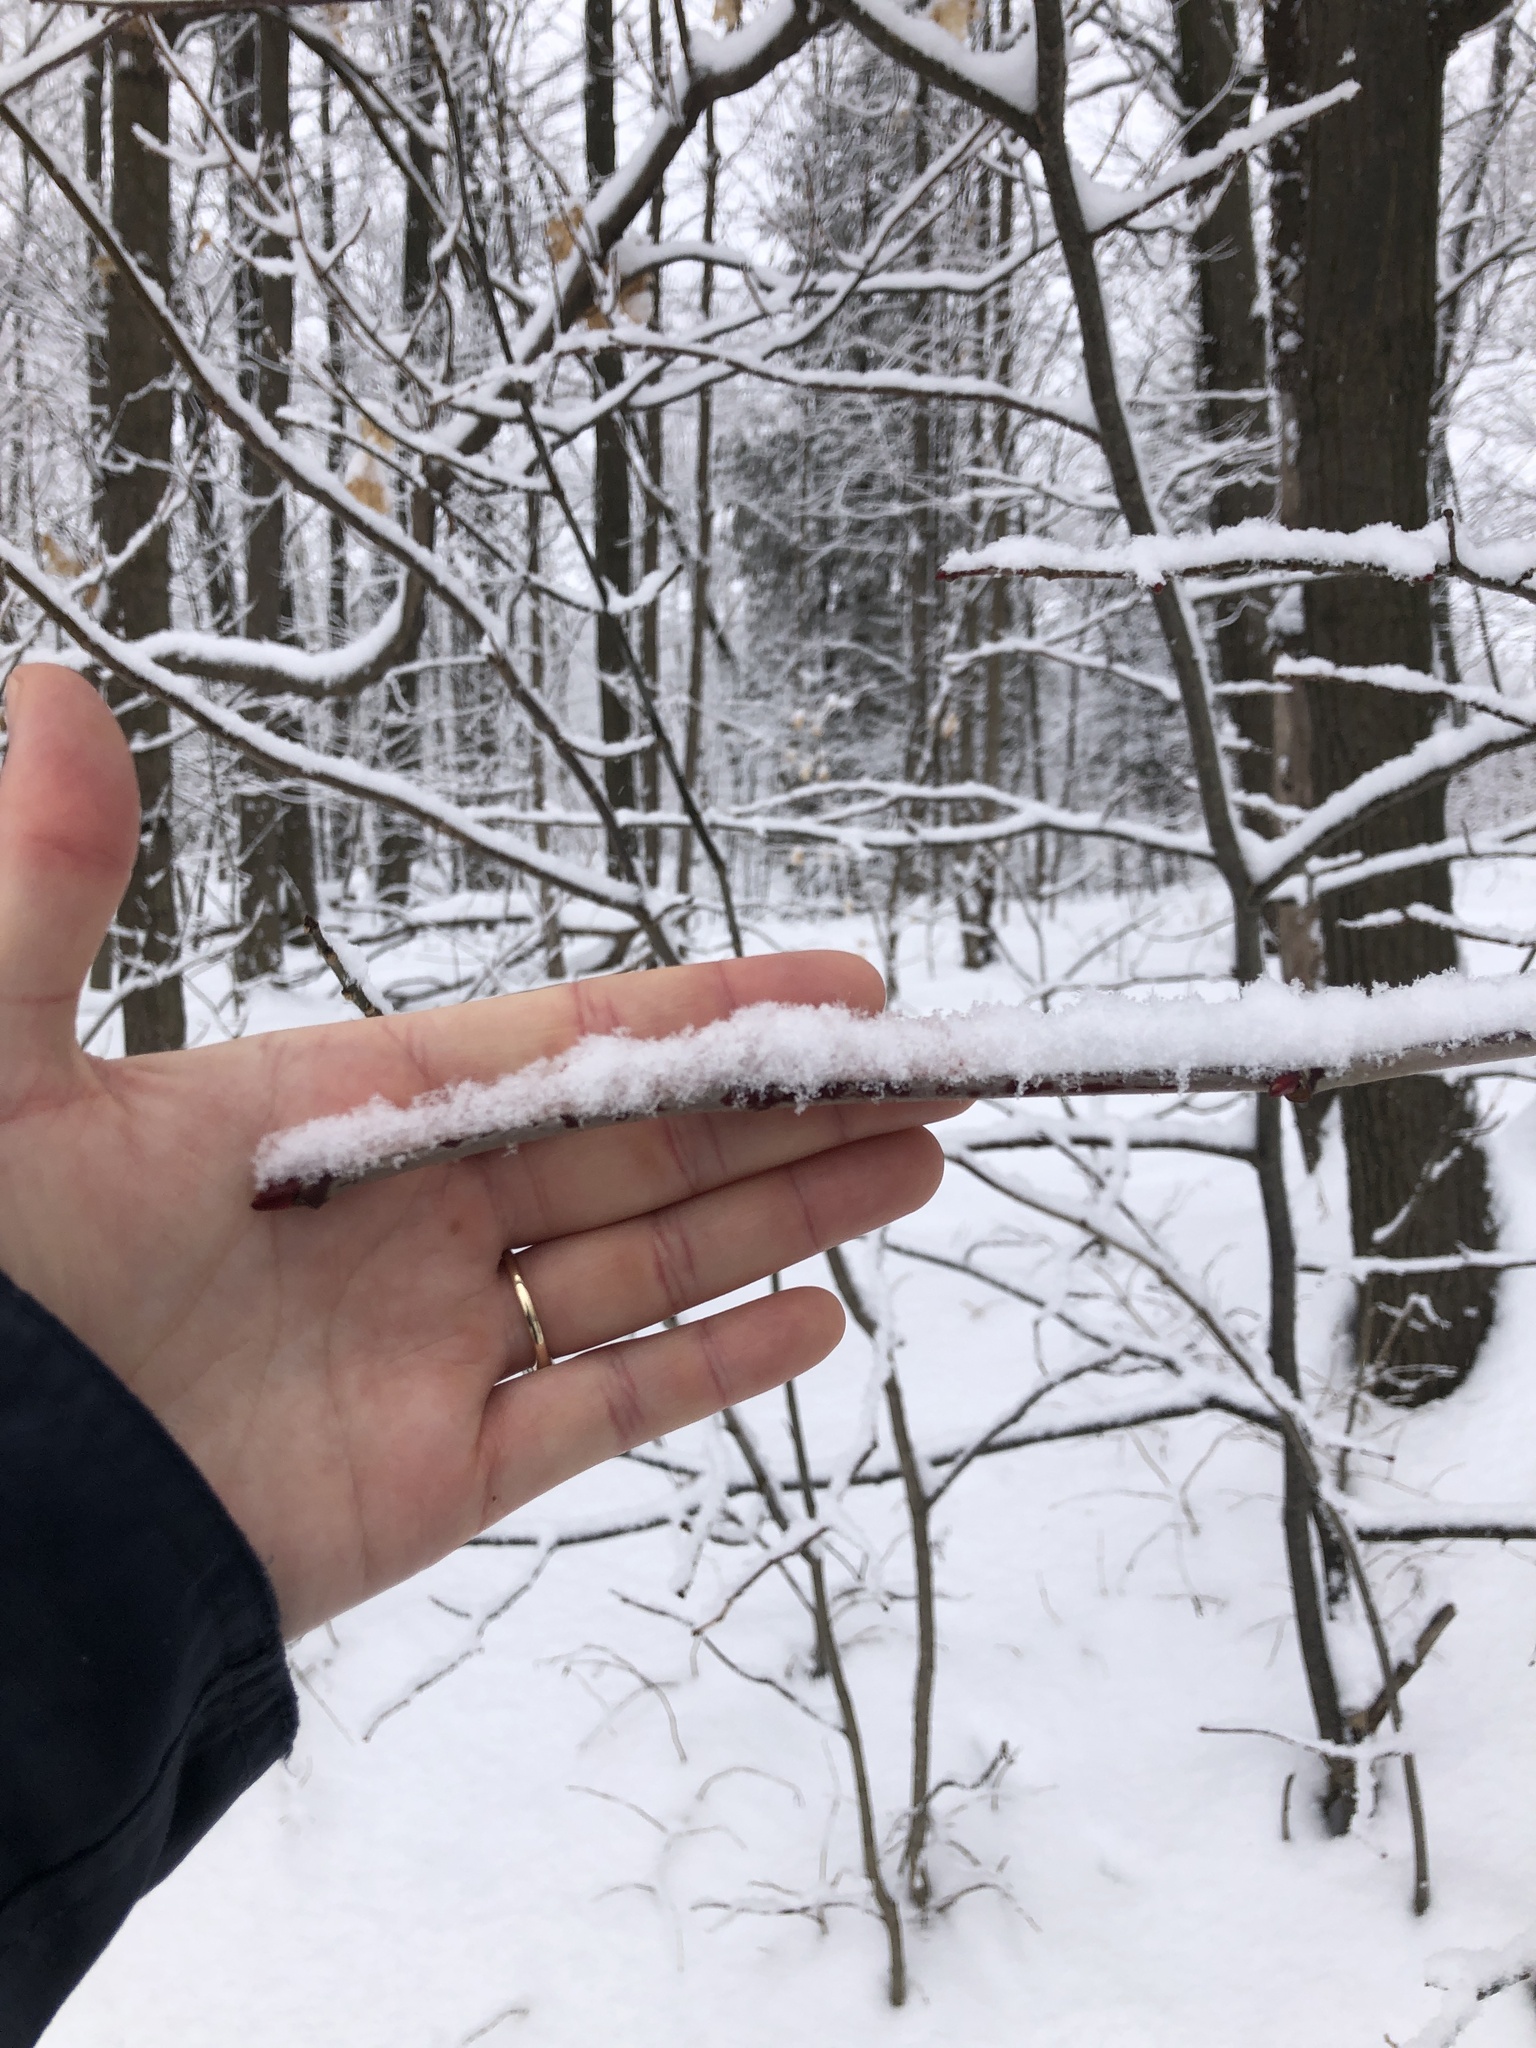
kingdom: Plantae
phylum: Tracheophyta
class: Magnoliopsida
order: Malvales
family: Malvaceae
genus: Tilia
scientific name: Tilia americana
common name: Basswood
